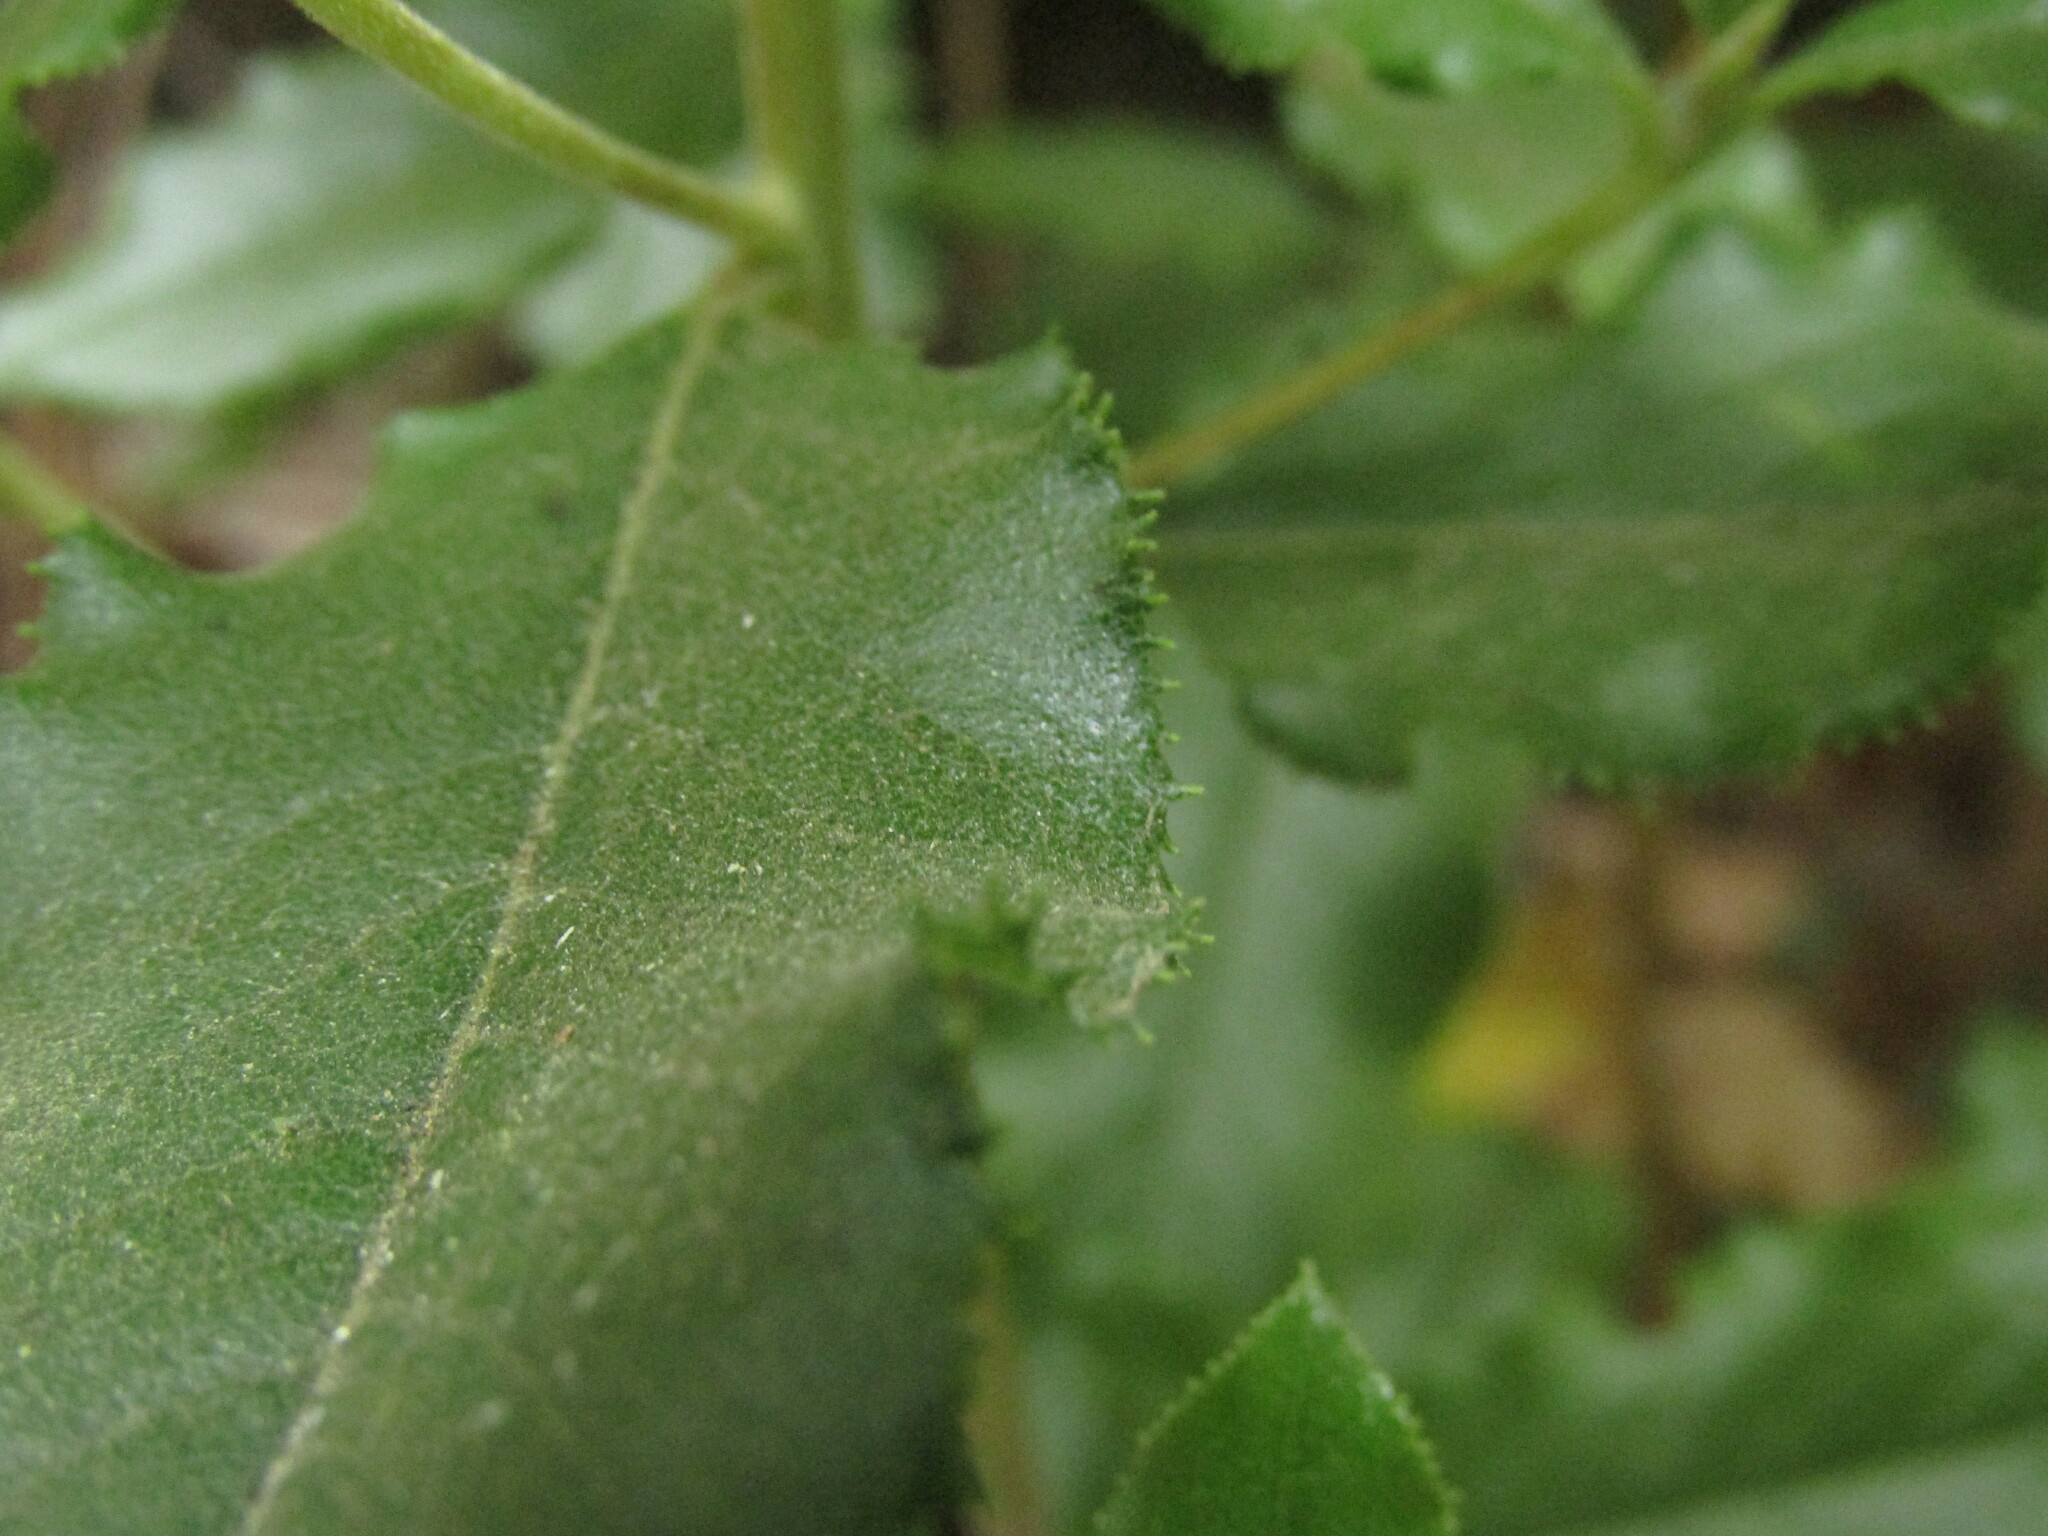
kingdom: Plantae
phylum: Tracheophyta
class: Magnoliopsida
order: Escalloniales
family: Escalloniaceae
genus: Escallonia
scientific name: Escallonia pulverulenta
